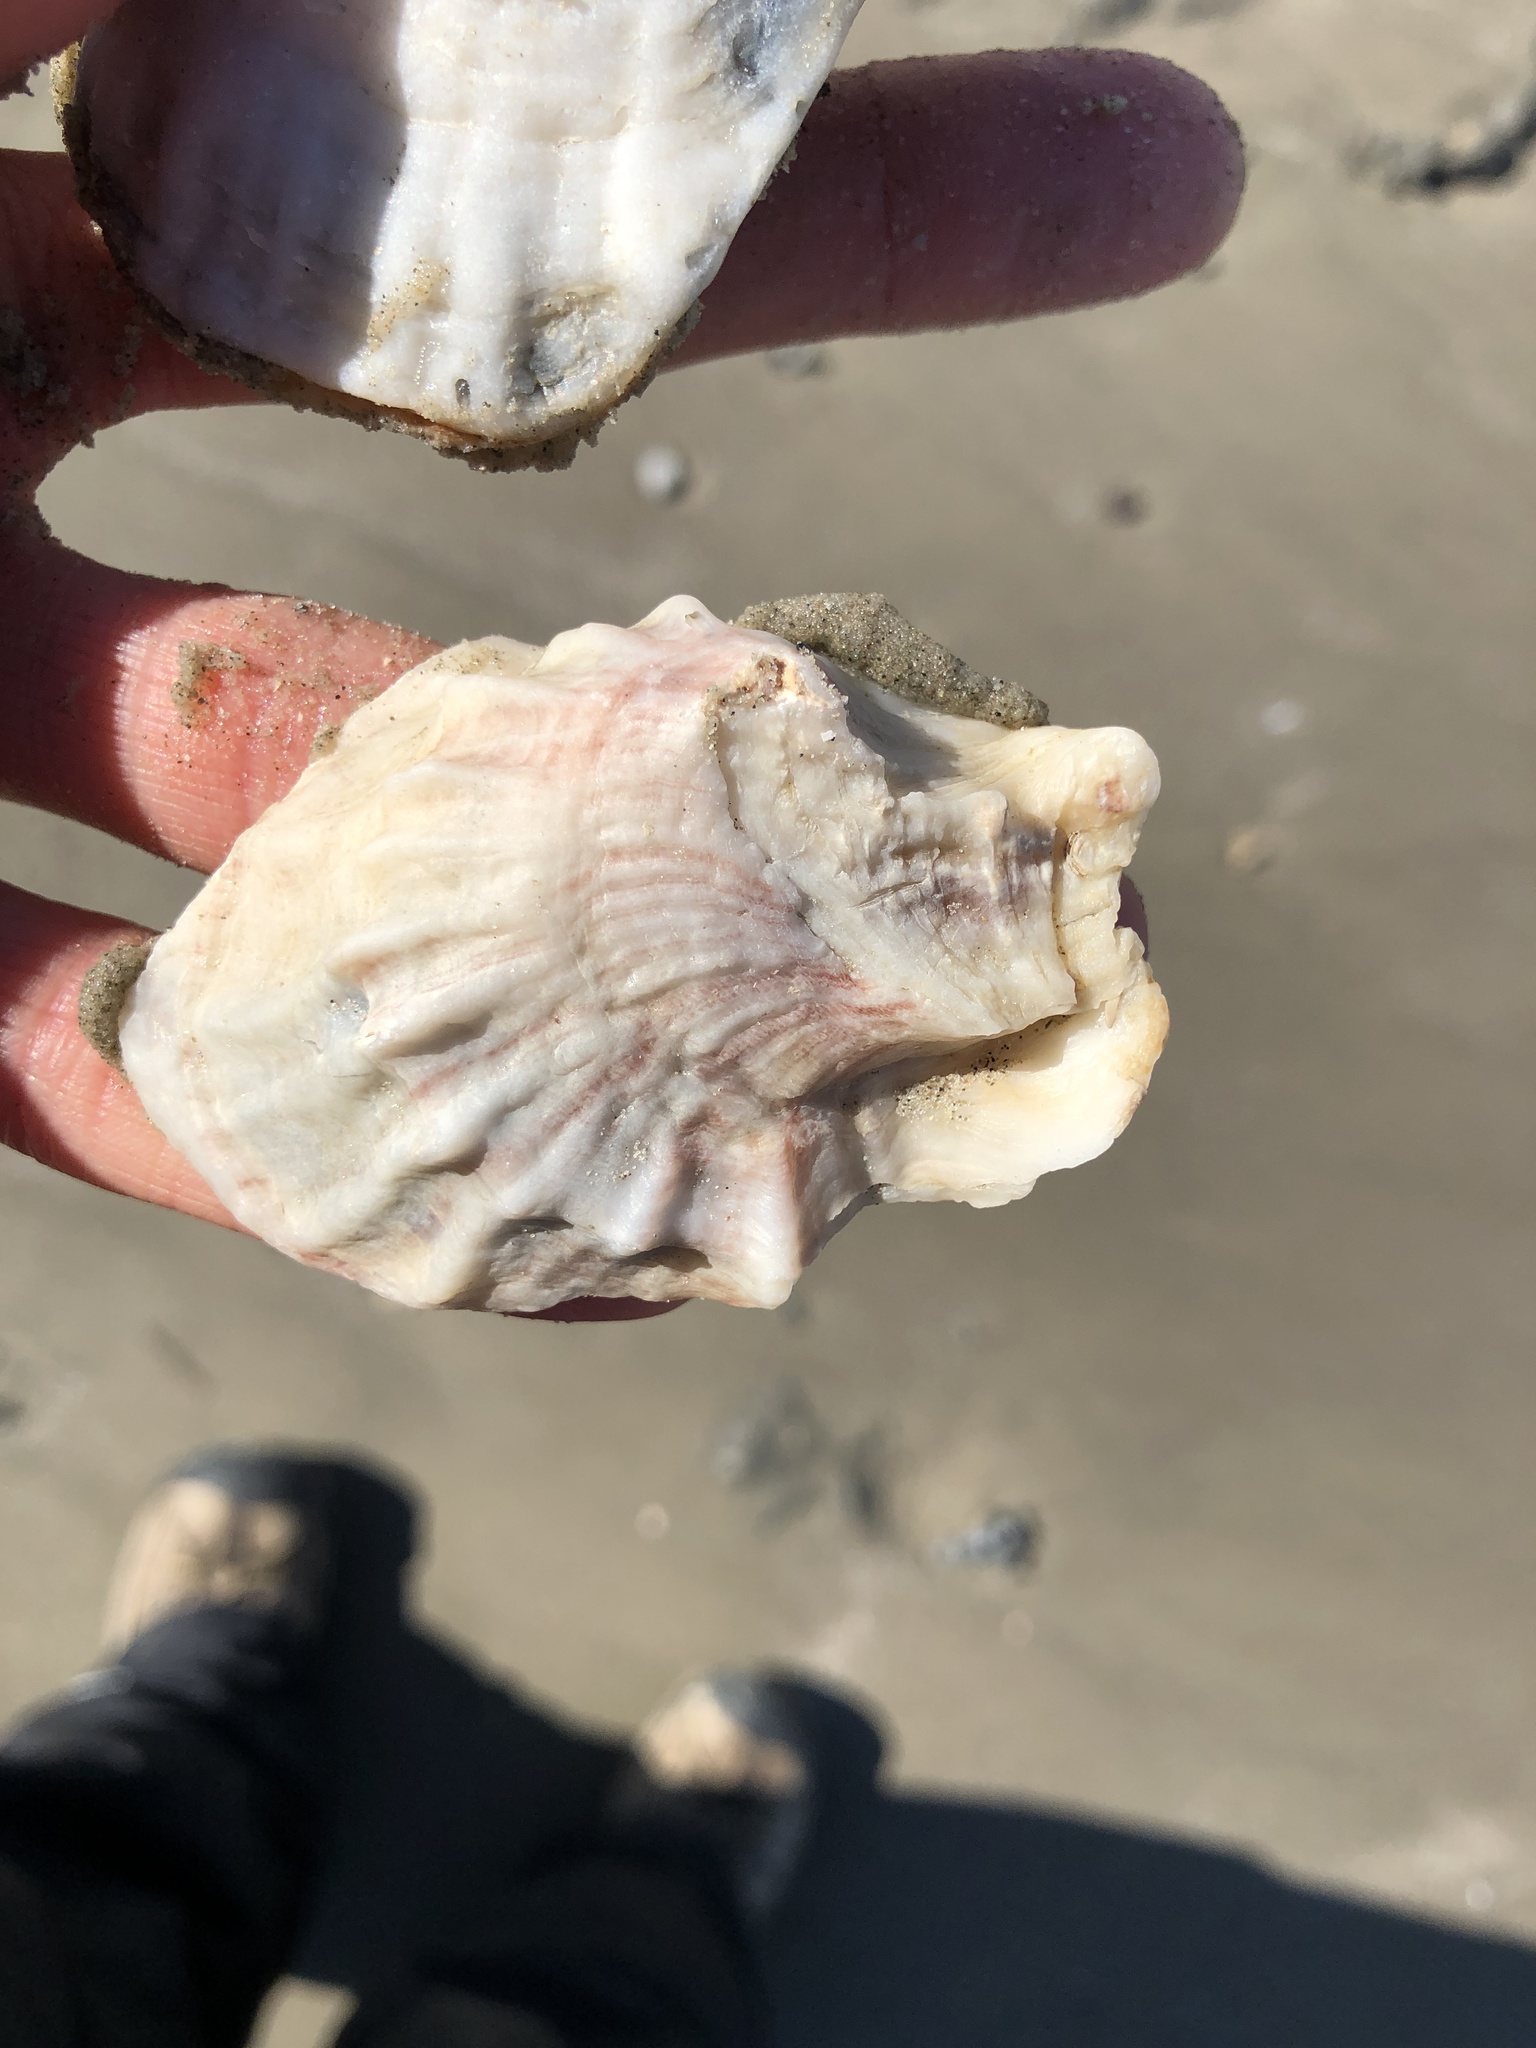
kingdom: Animalia
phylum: Mollusca
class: Bivalvia
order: Ostreida
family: Ostreidae
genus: Crassostrea
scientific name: Crassostrea virginica
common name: American oyster
